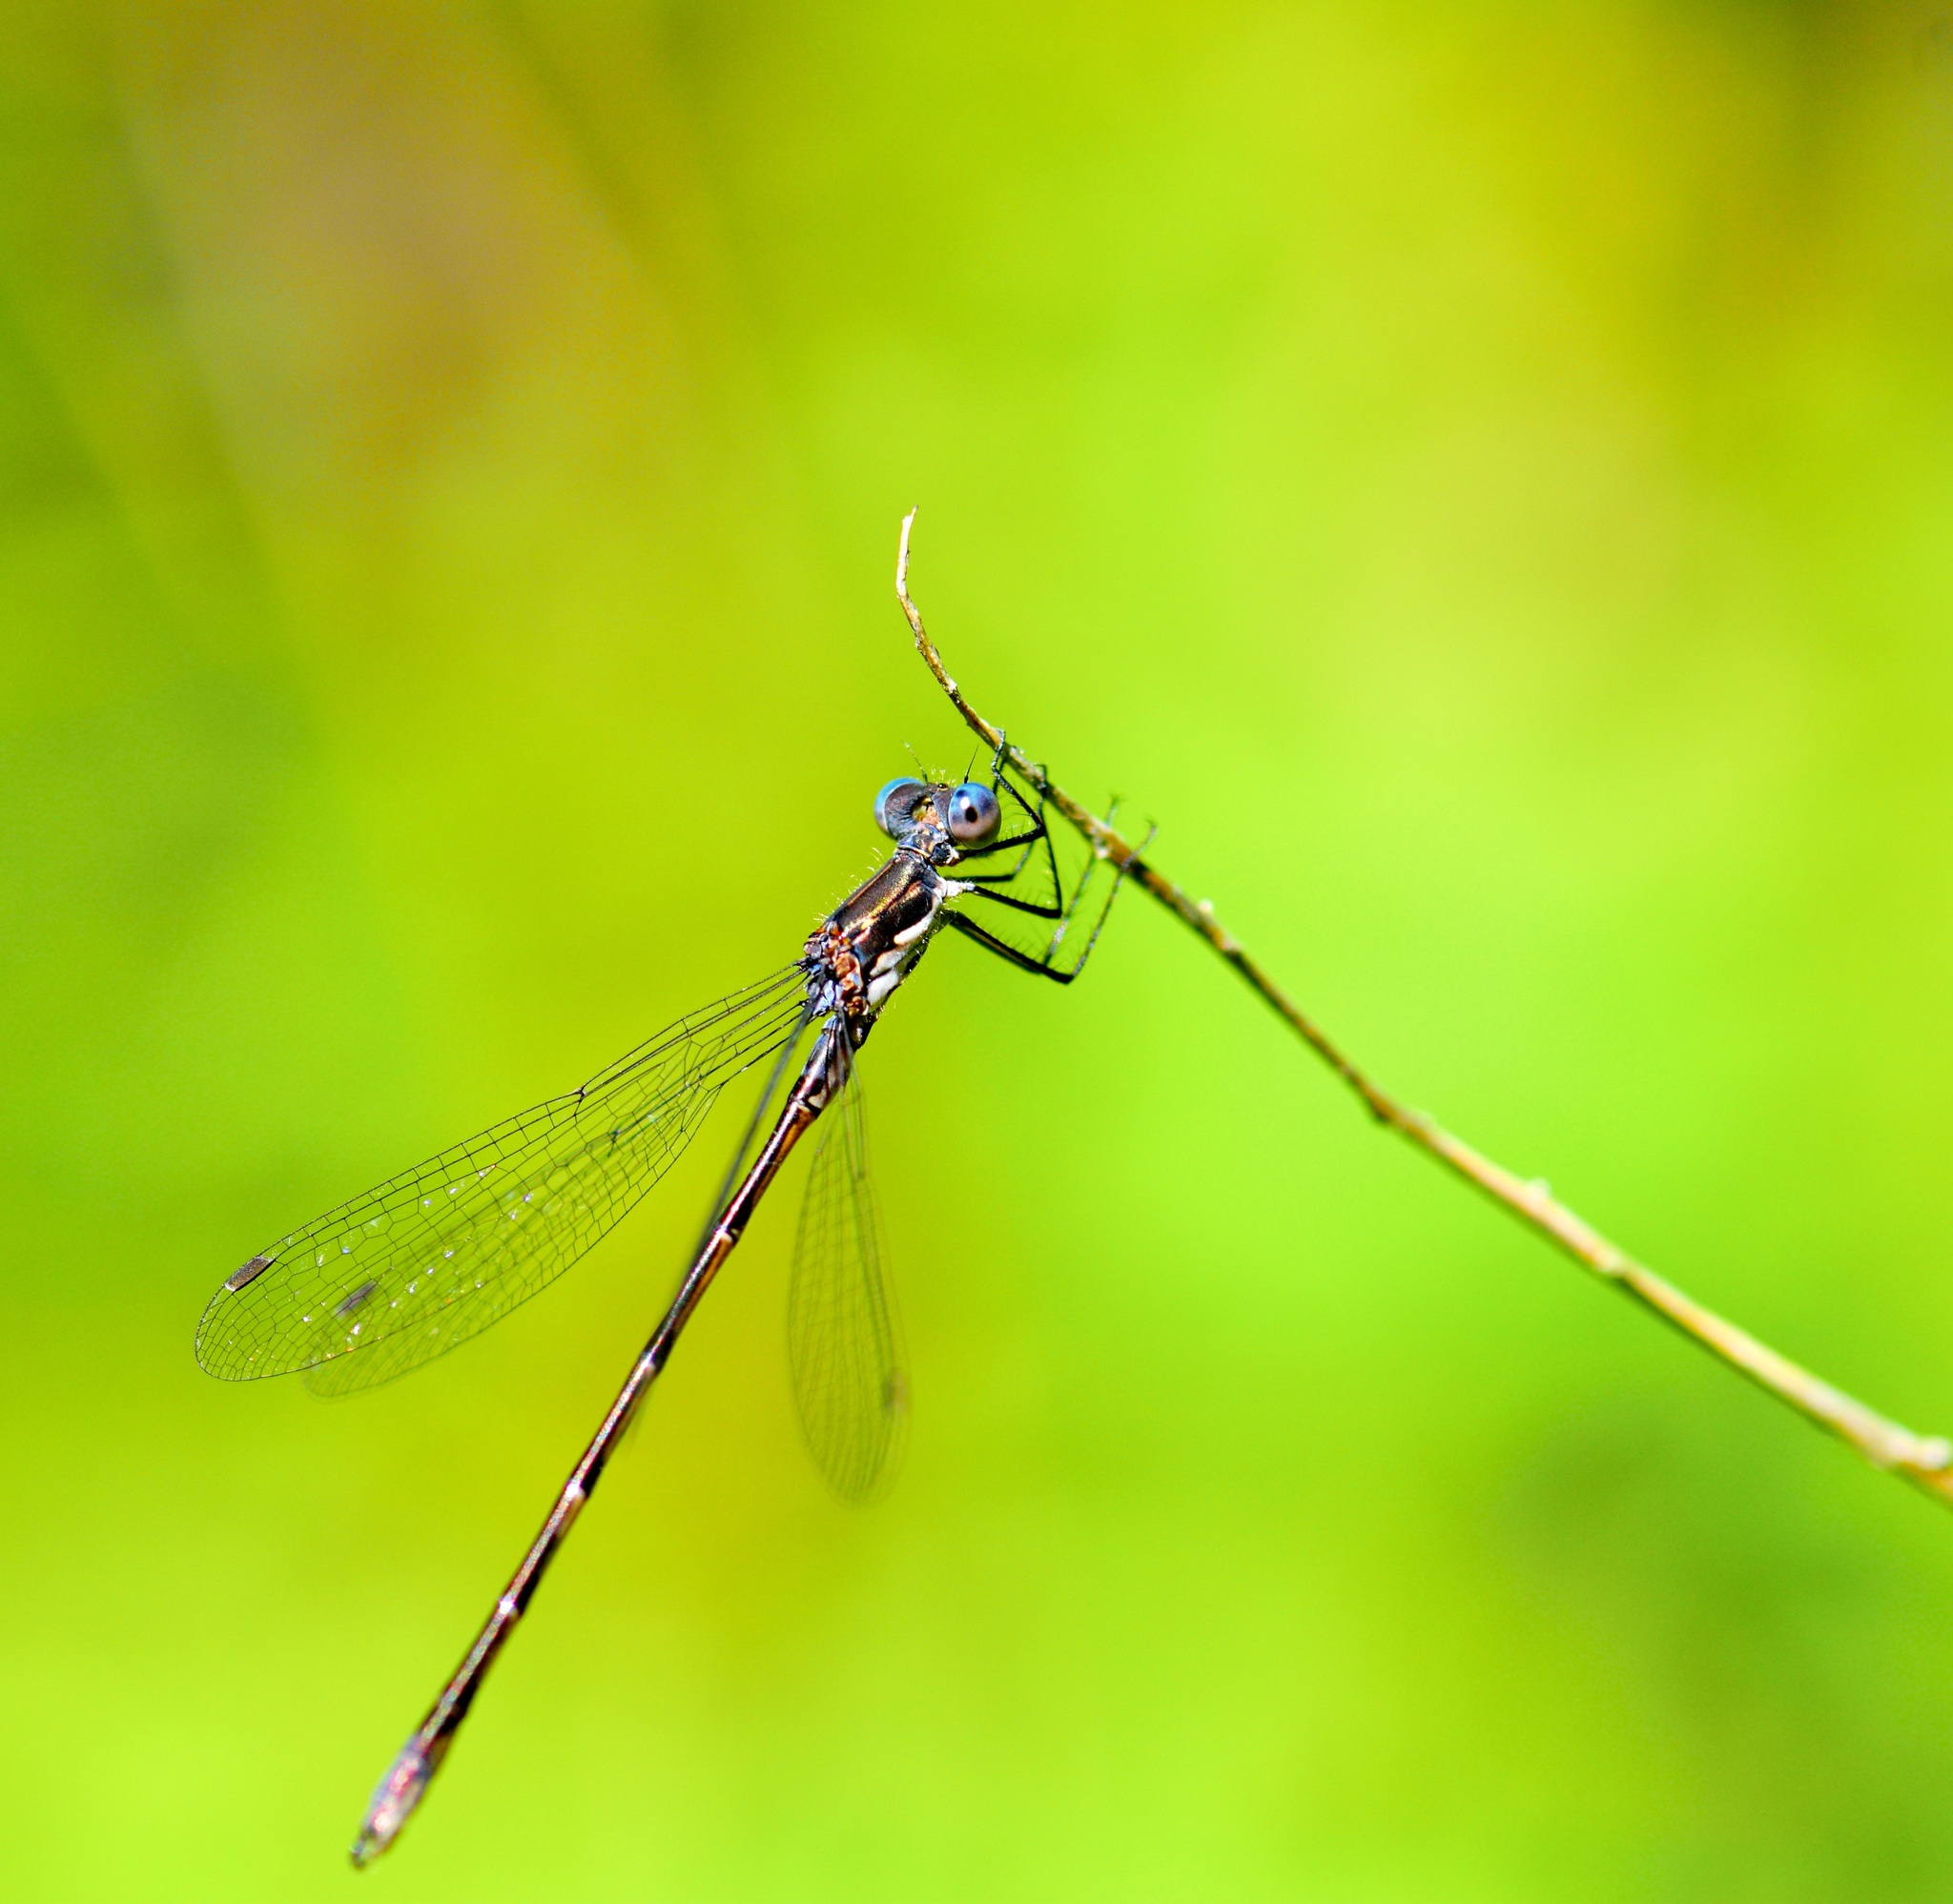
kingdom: Animalia
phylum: Arthropoda
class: Insecta
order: Odonata
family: Lestidae
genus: Lestes
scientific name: Lestes congener
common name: Spotted spreadwing
